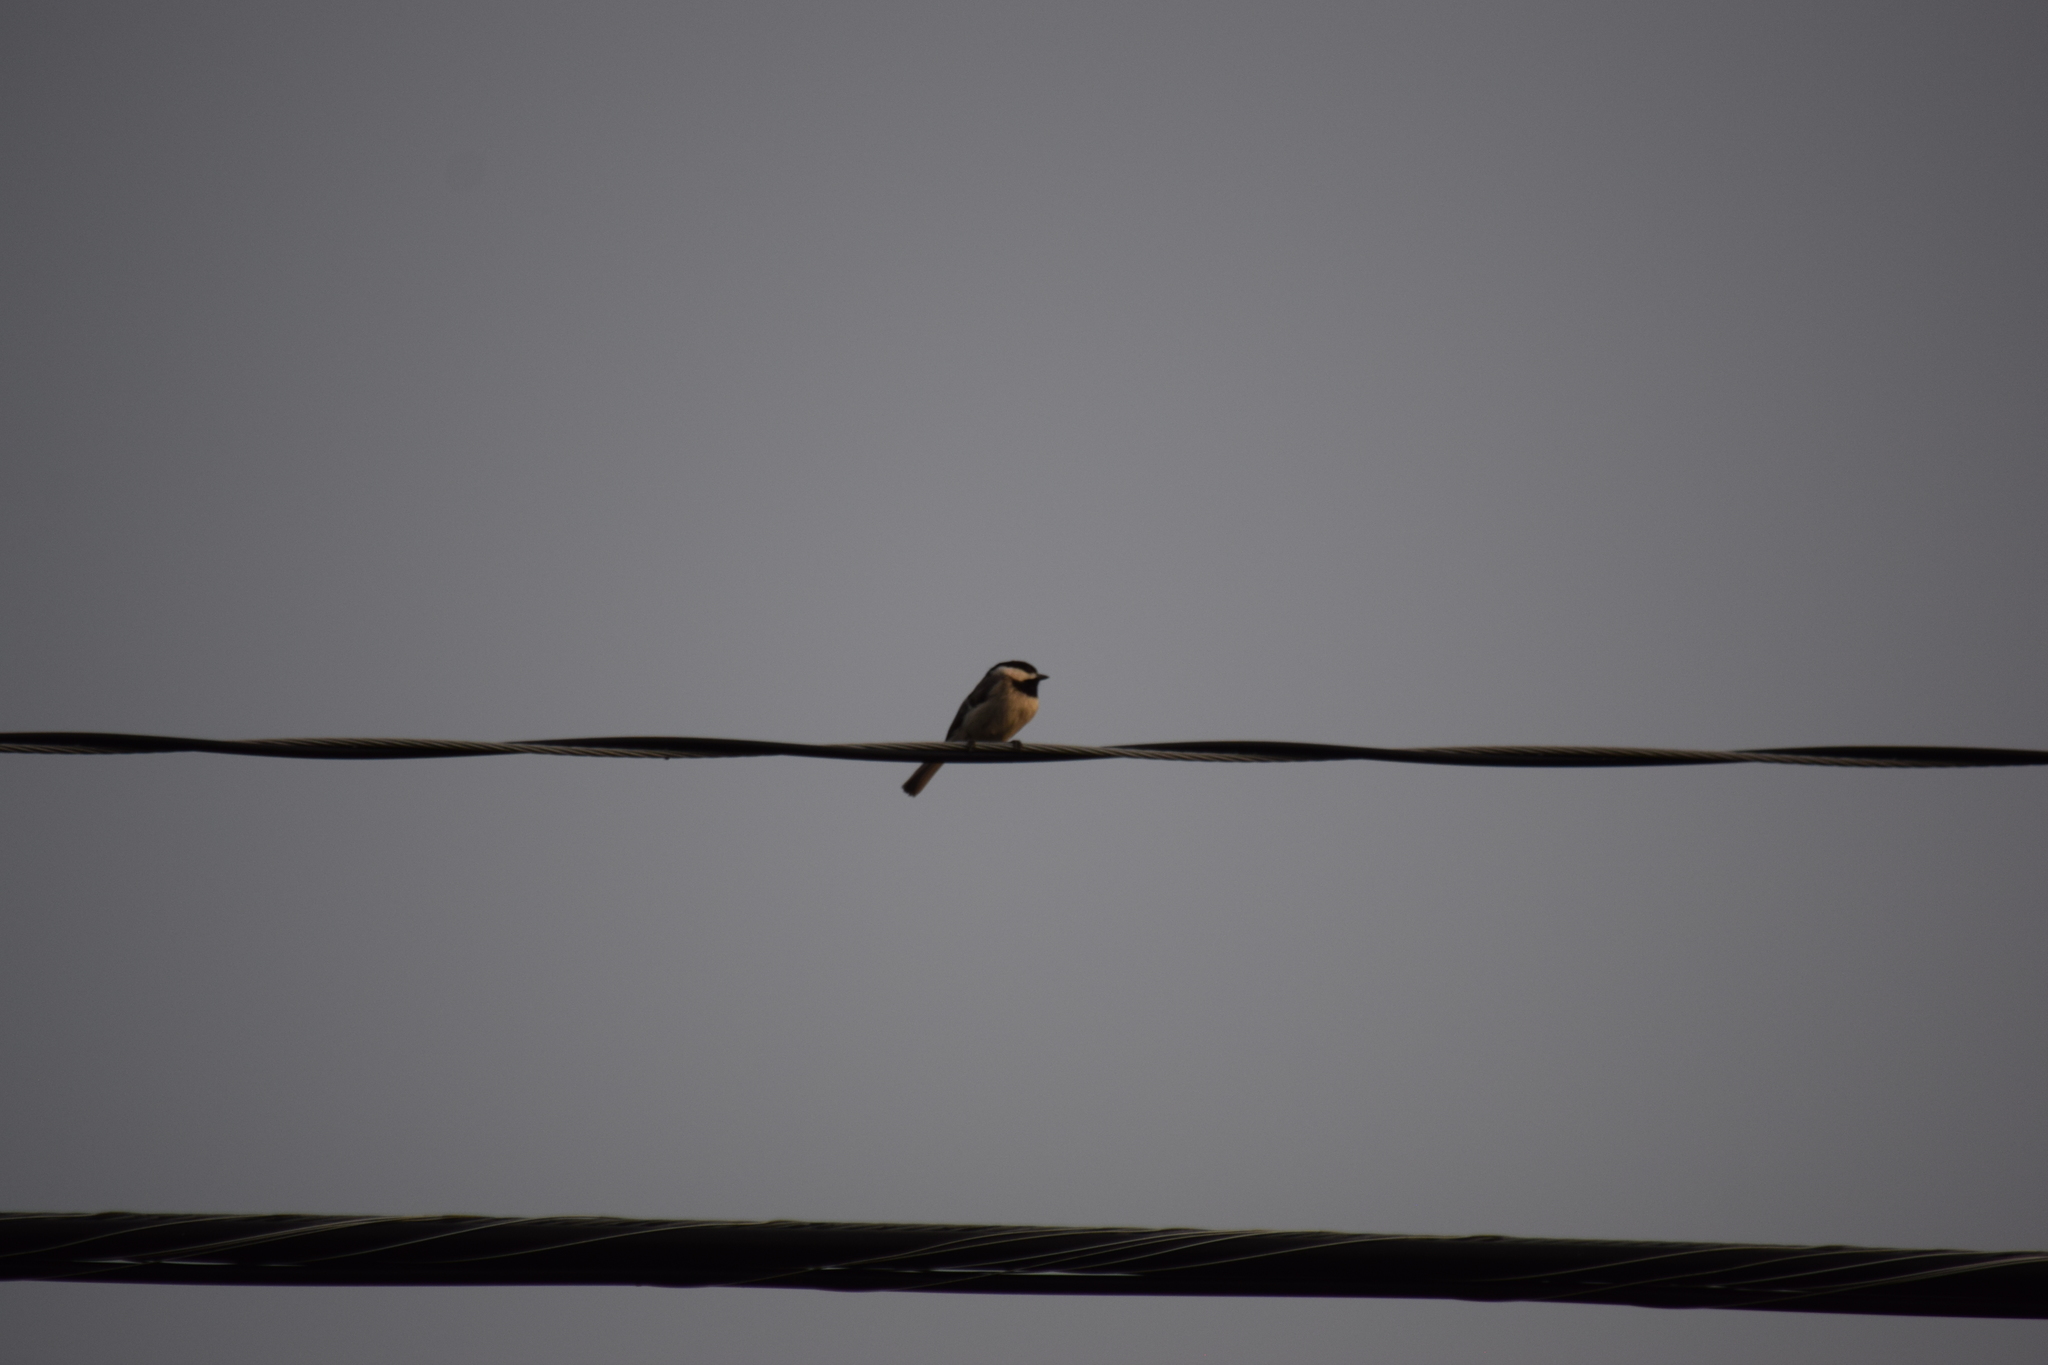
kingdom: Animalia
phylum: Chordata
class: Aves
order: Passeriformes
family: Paridae
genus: Poecile
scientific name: Poecile carolinensis
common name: Carolina chickadee
